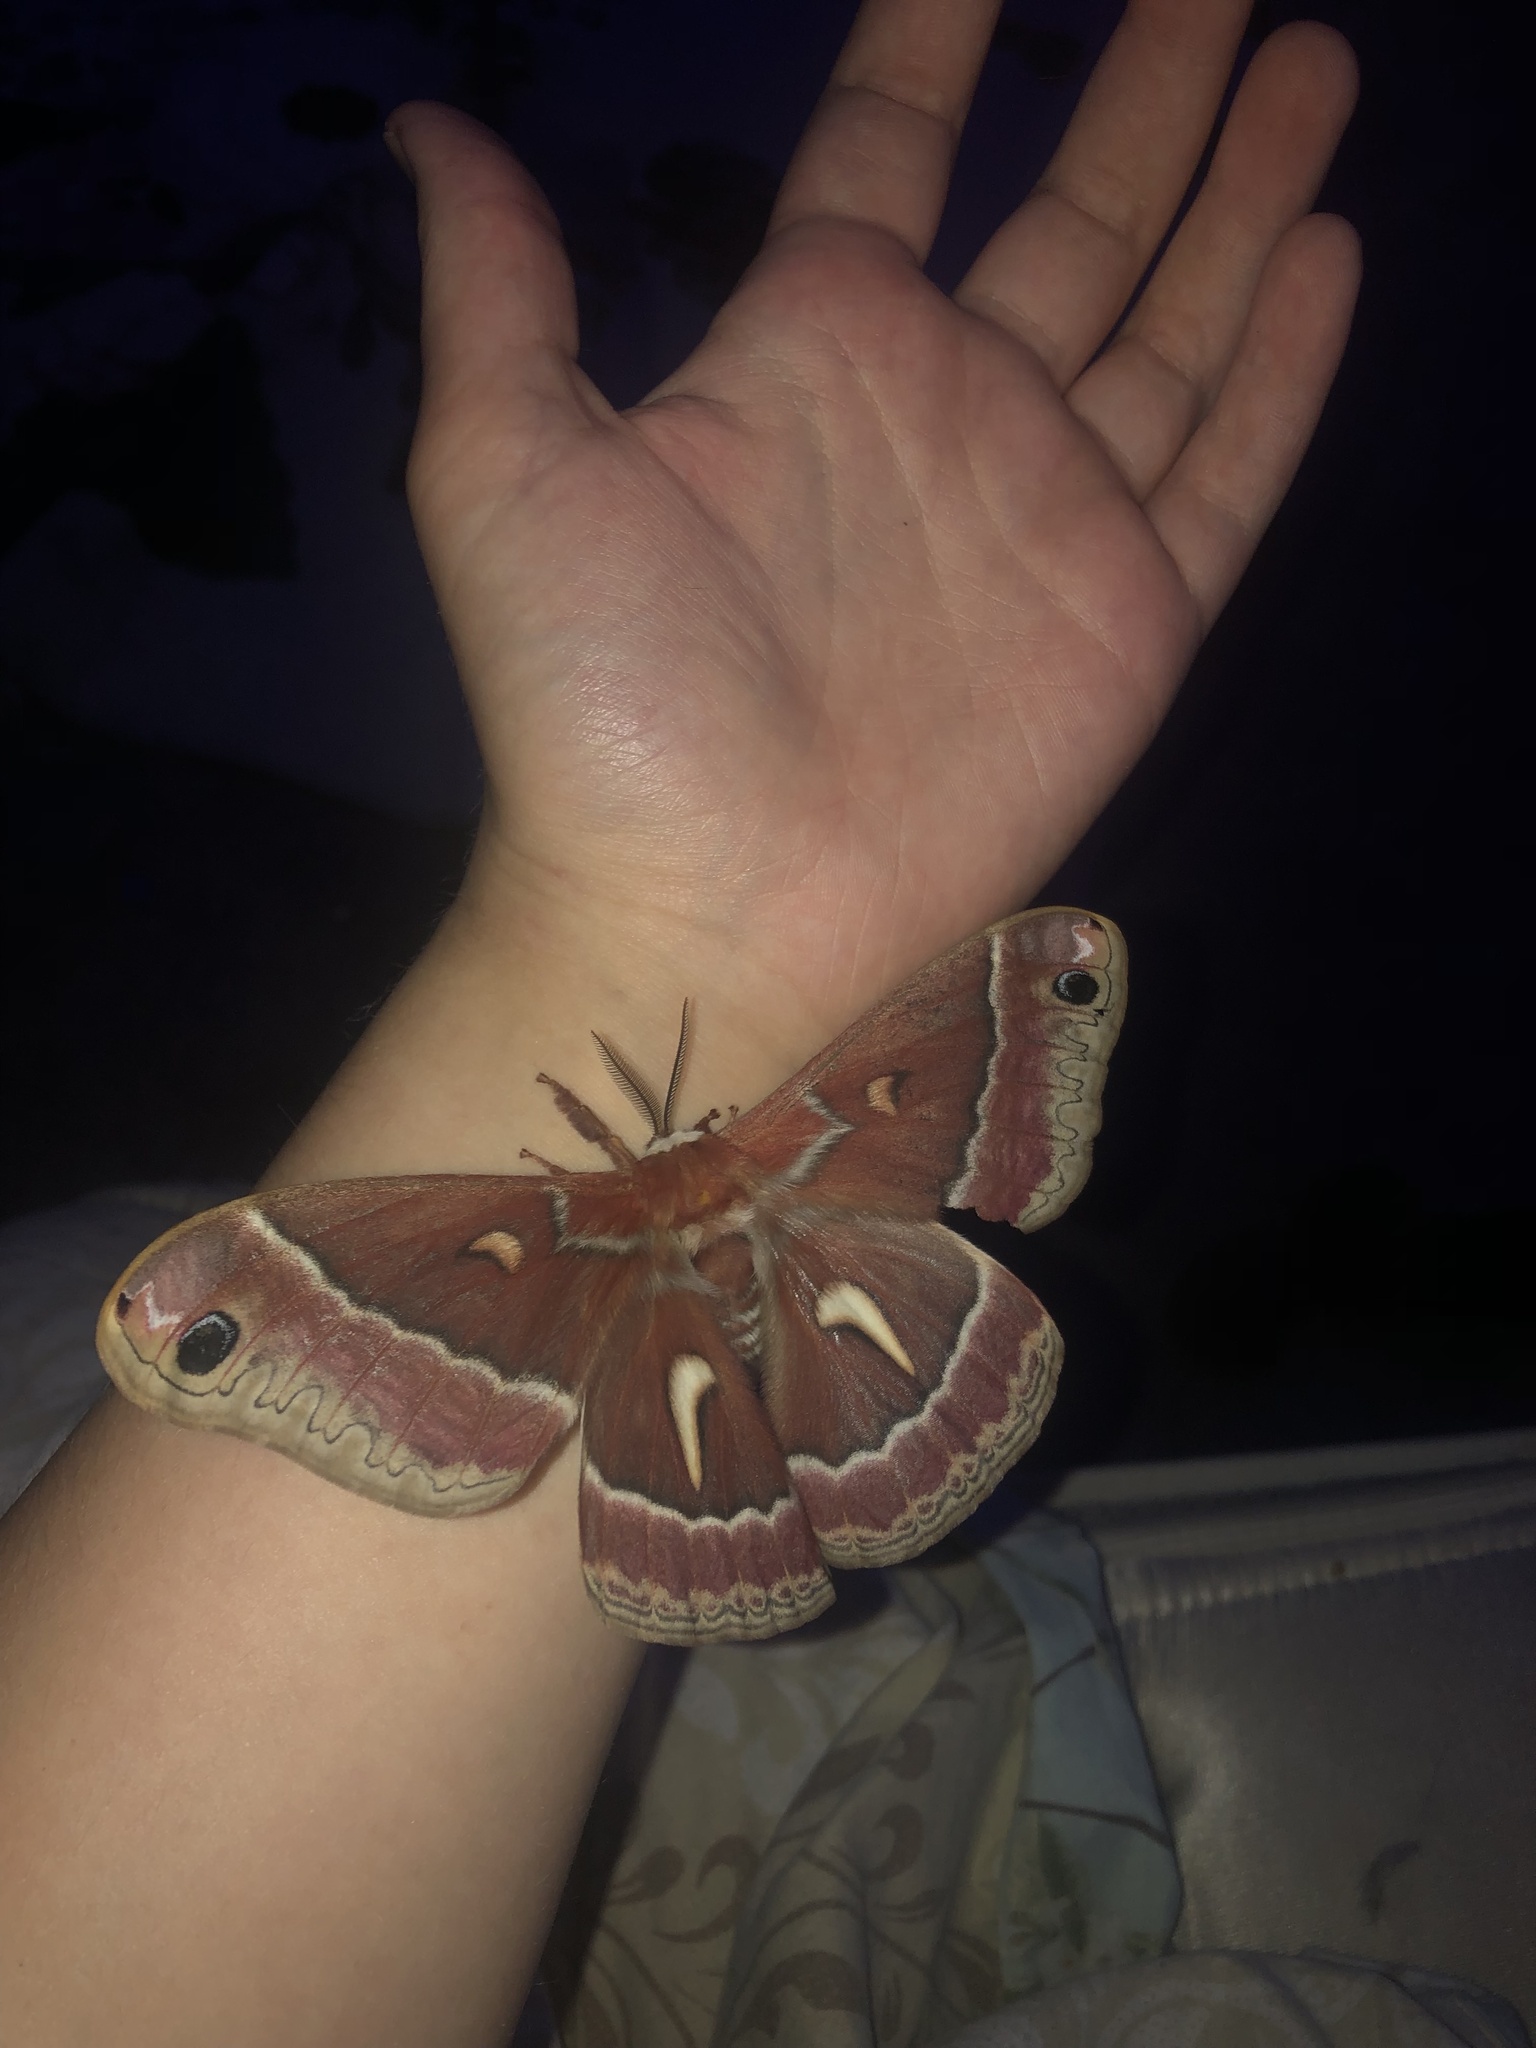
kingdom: Animalia
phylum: Arthropoda
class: Insecta
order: Lepidoptera
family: Saturniidae
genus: Hyalophora
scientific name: Hyalophora euryalus
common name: Ceanothus silkmoth
